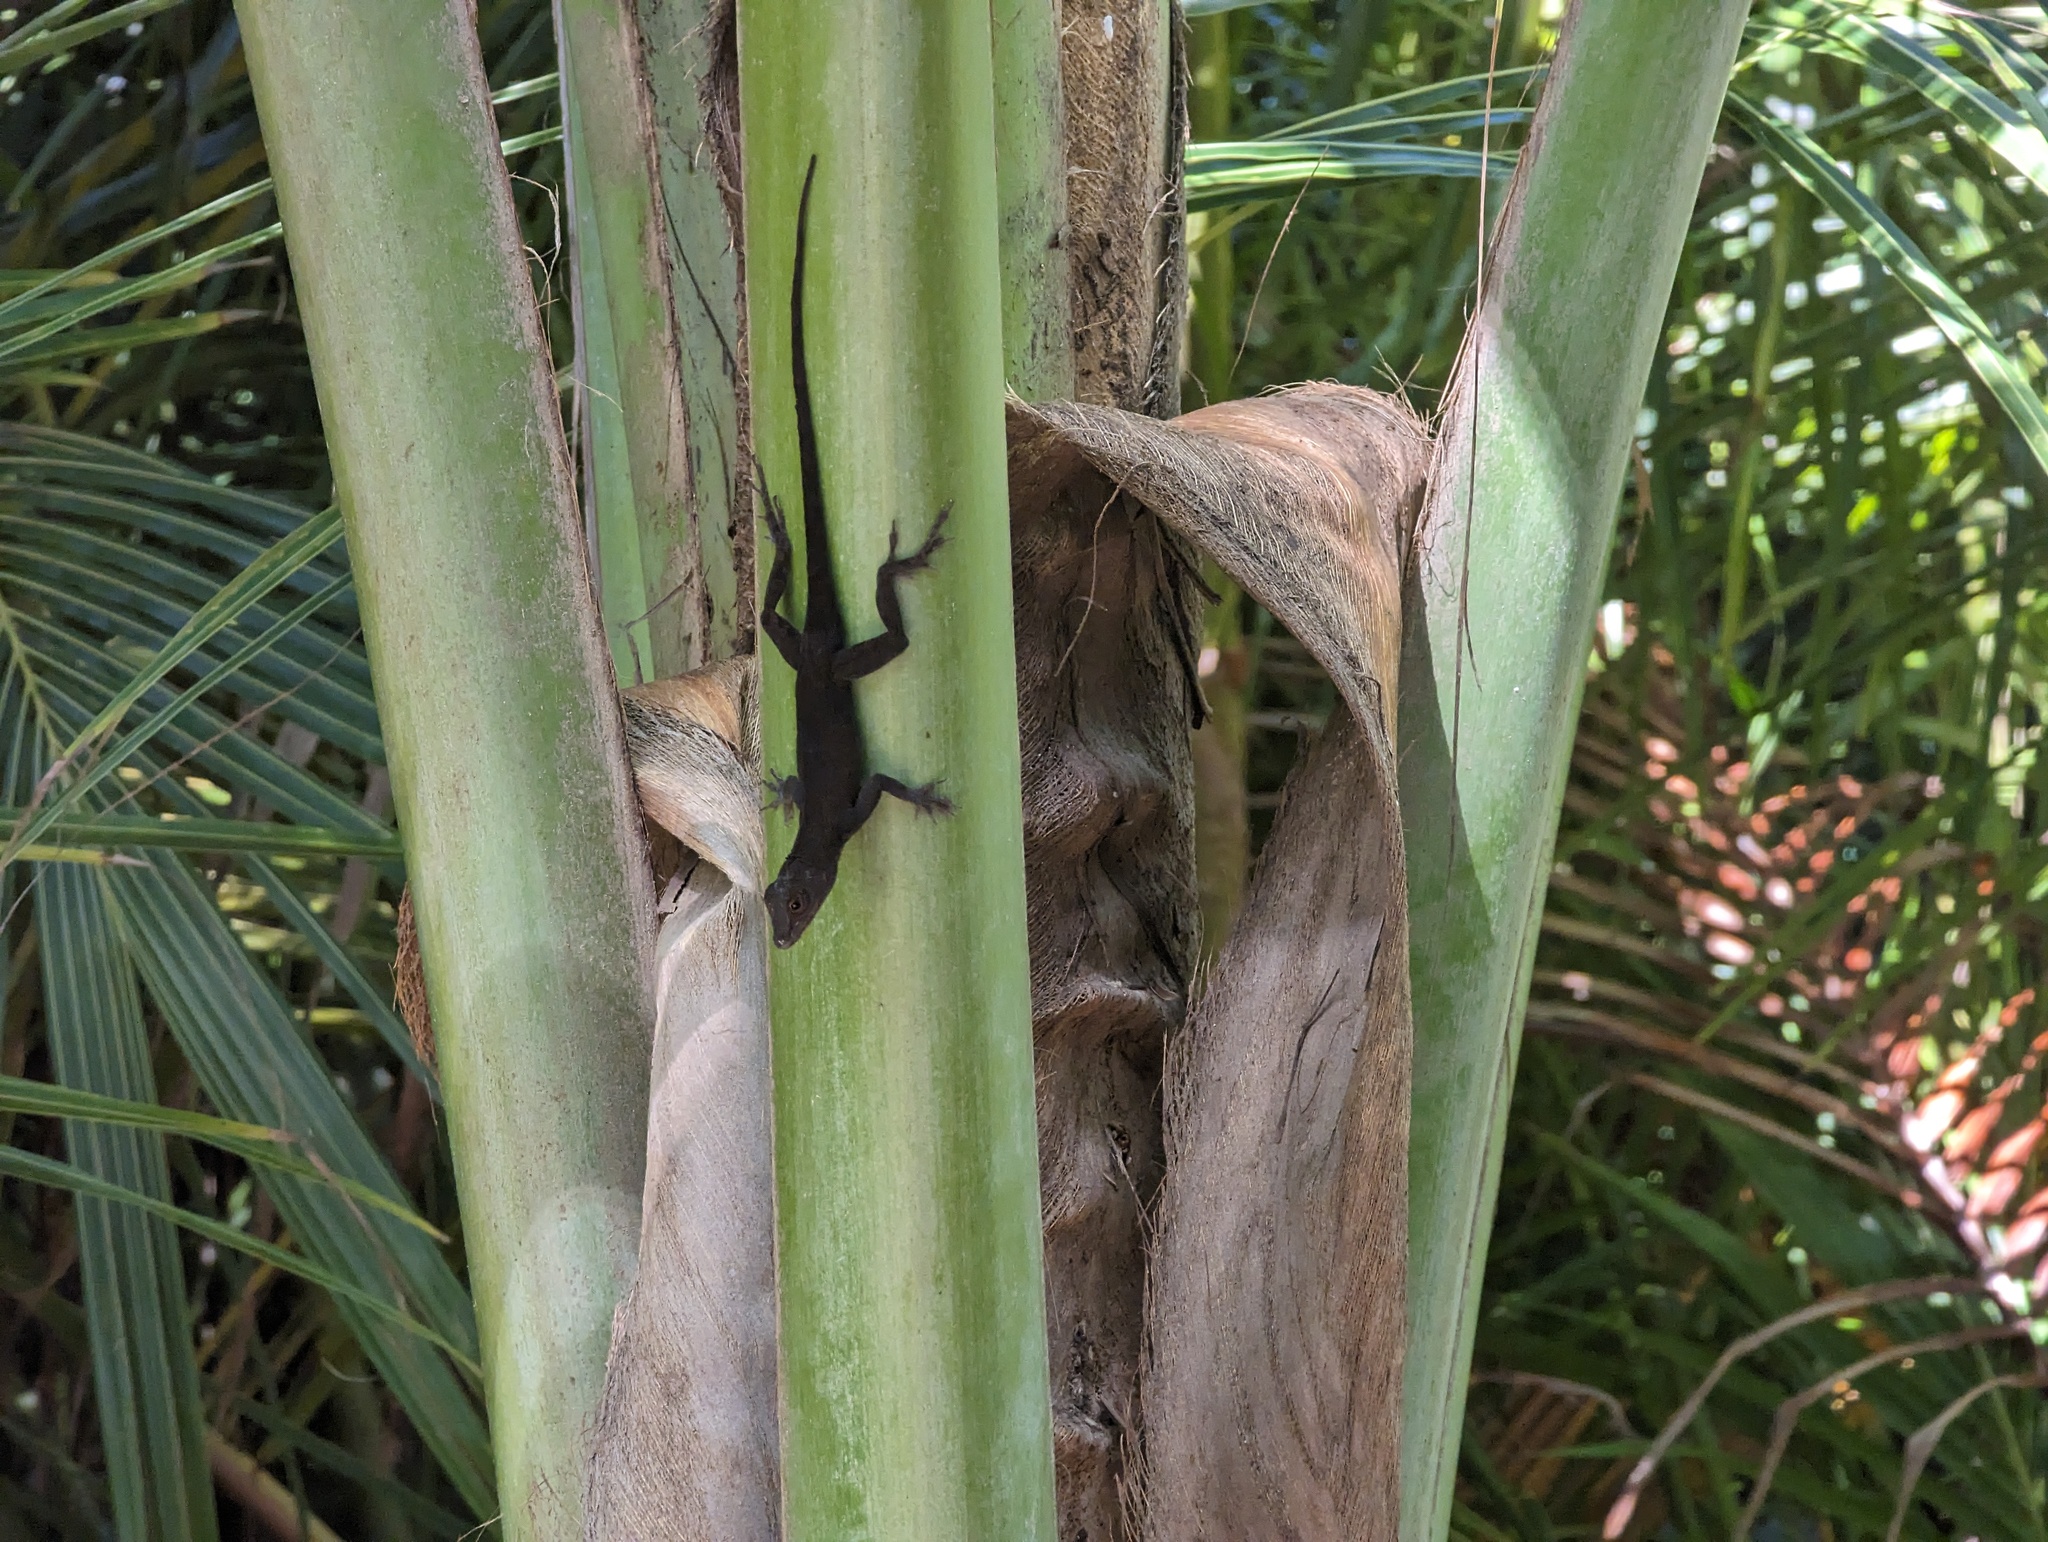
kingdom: Animalia
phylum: Chordata
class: Squamata
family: Dactyloidae
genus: Anolis
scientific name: Anolis cristatellus
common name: Crested anole
